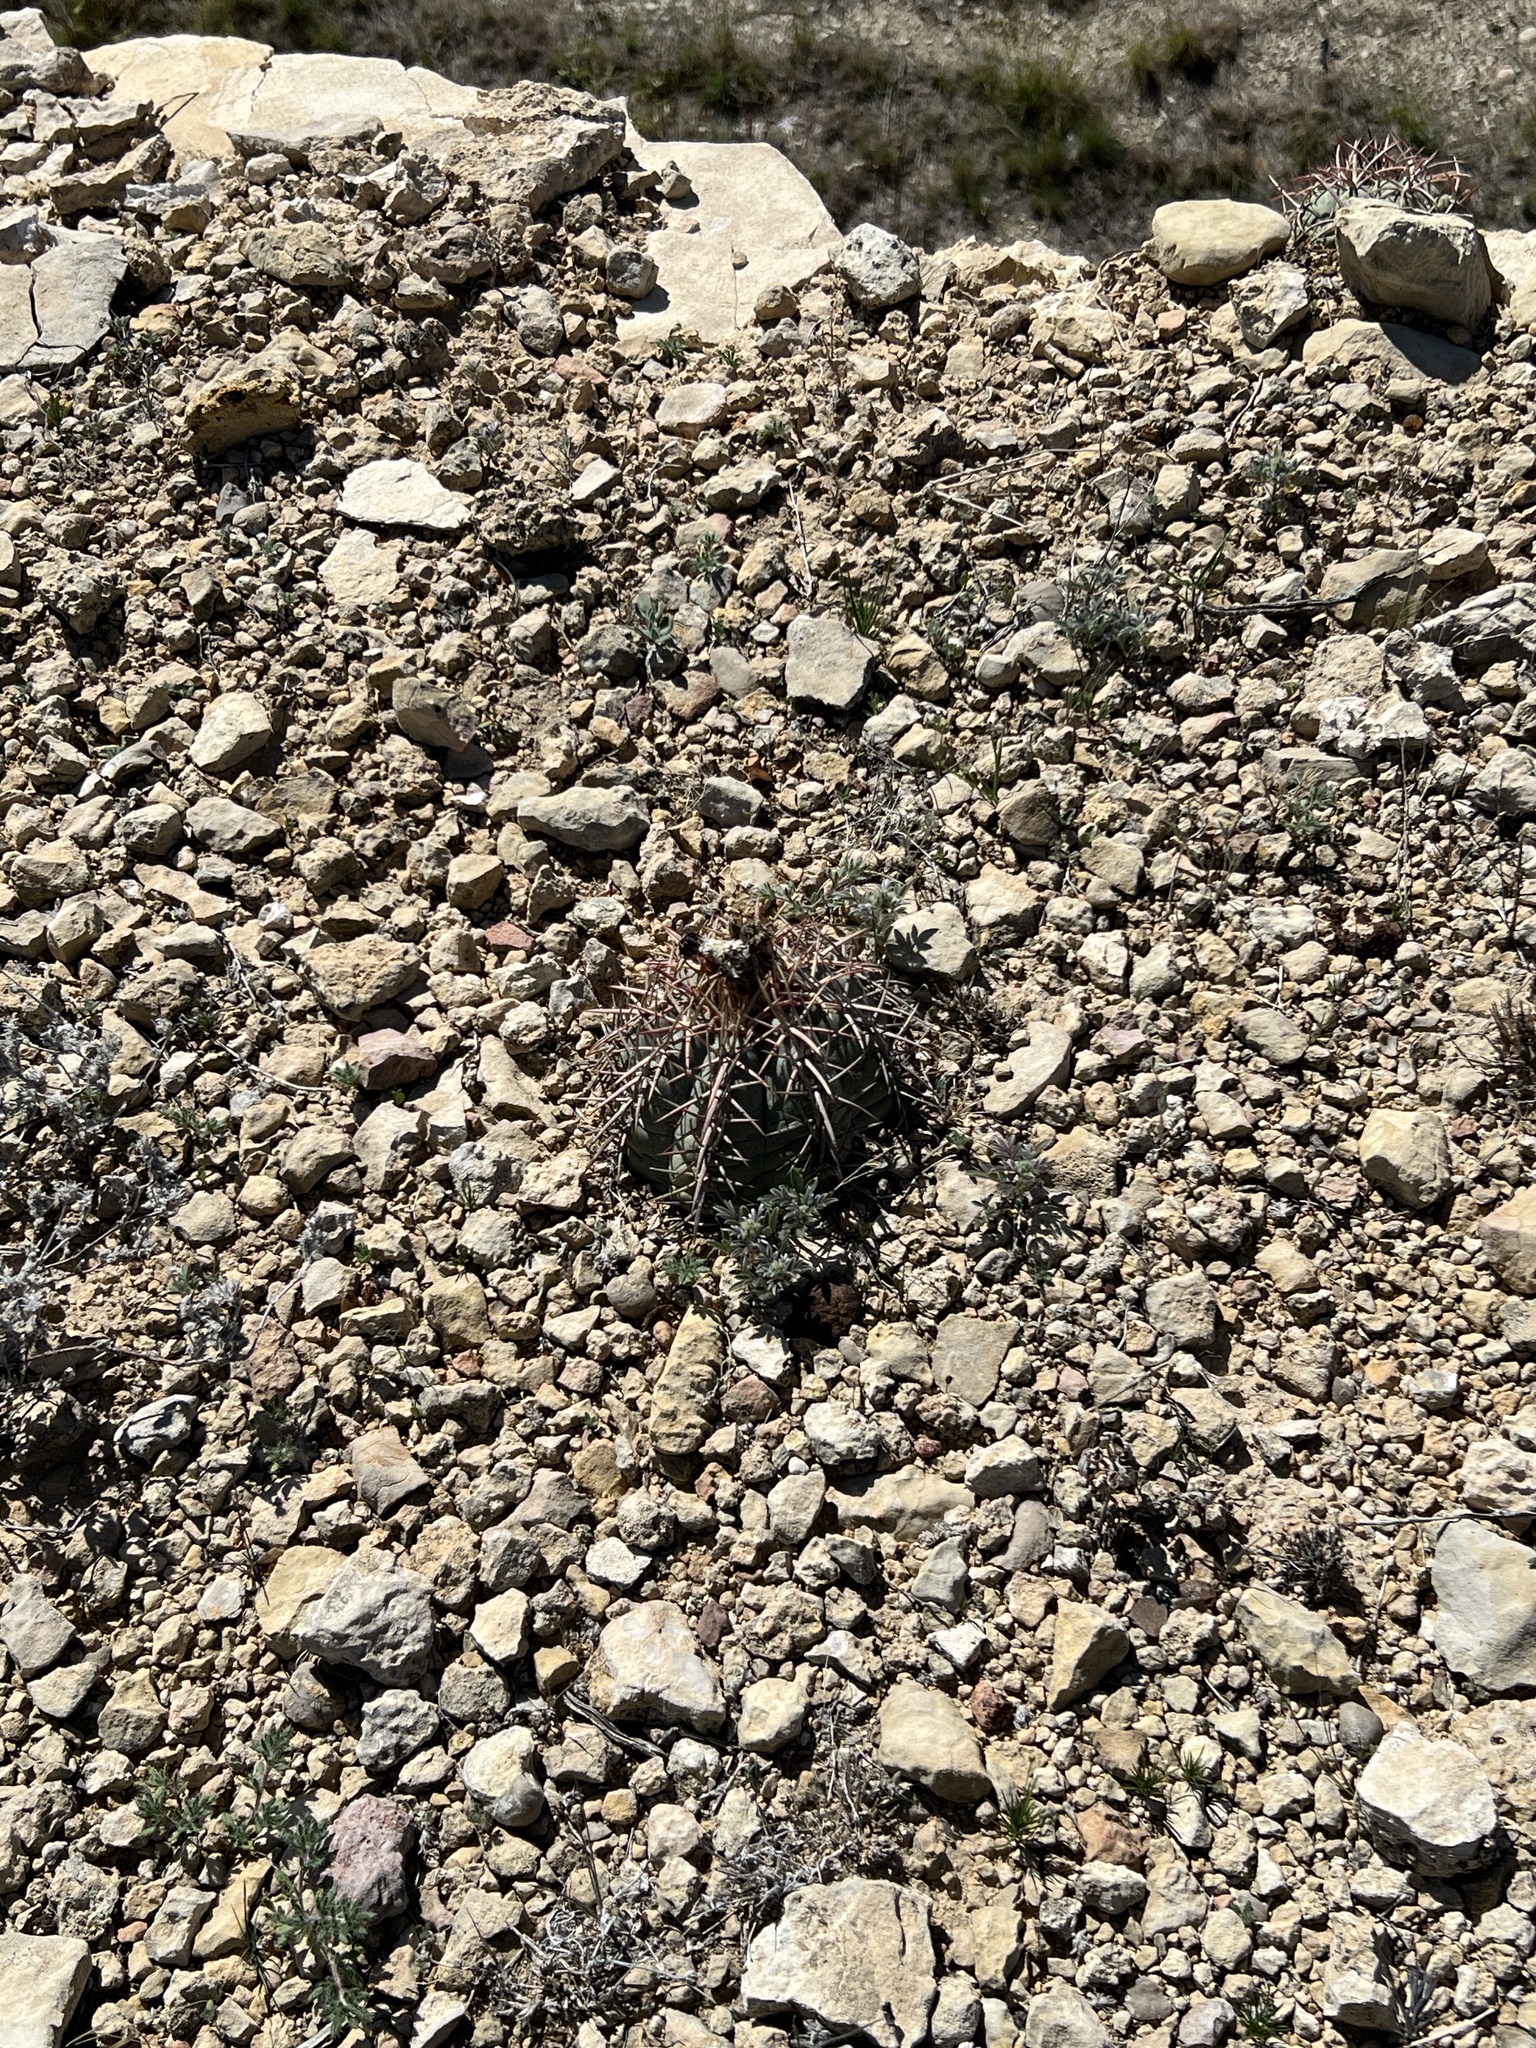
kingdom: Plantae
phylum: Tracheophyta
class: Magnoliopsida
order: Caryophyllales
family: Cactaceae
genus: Echinocactus
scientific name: Echinocactus horizonthalonius
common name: Devilshead
